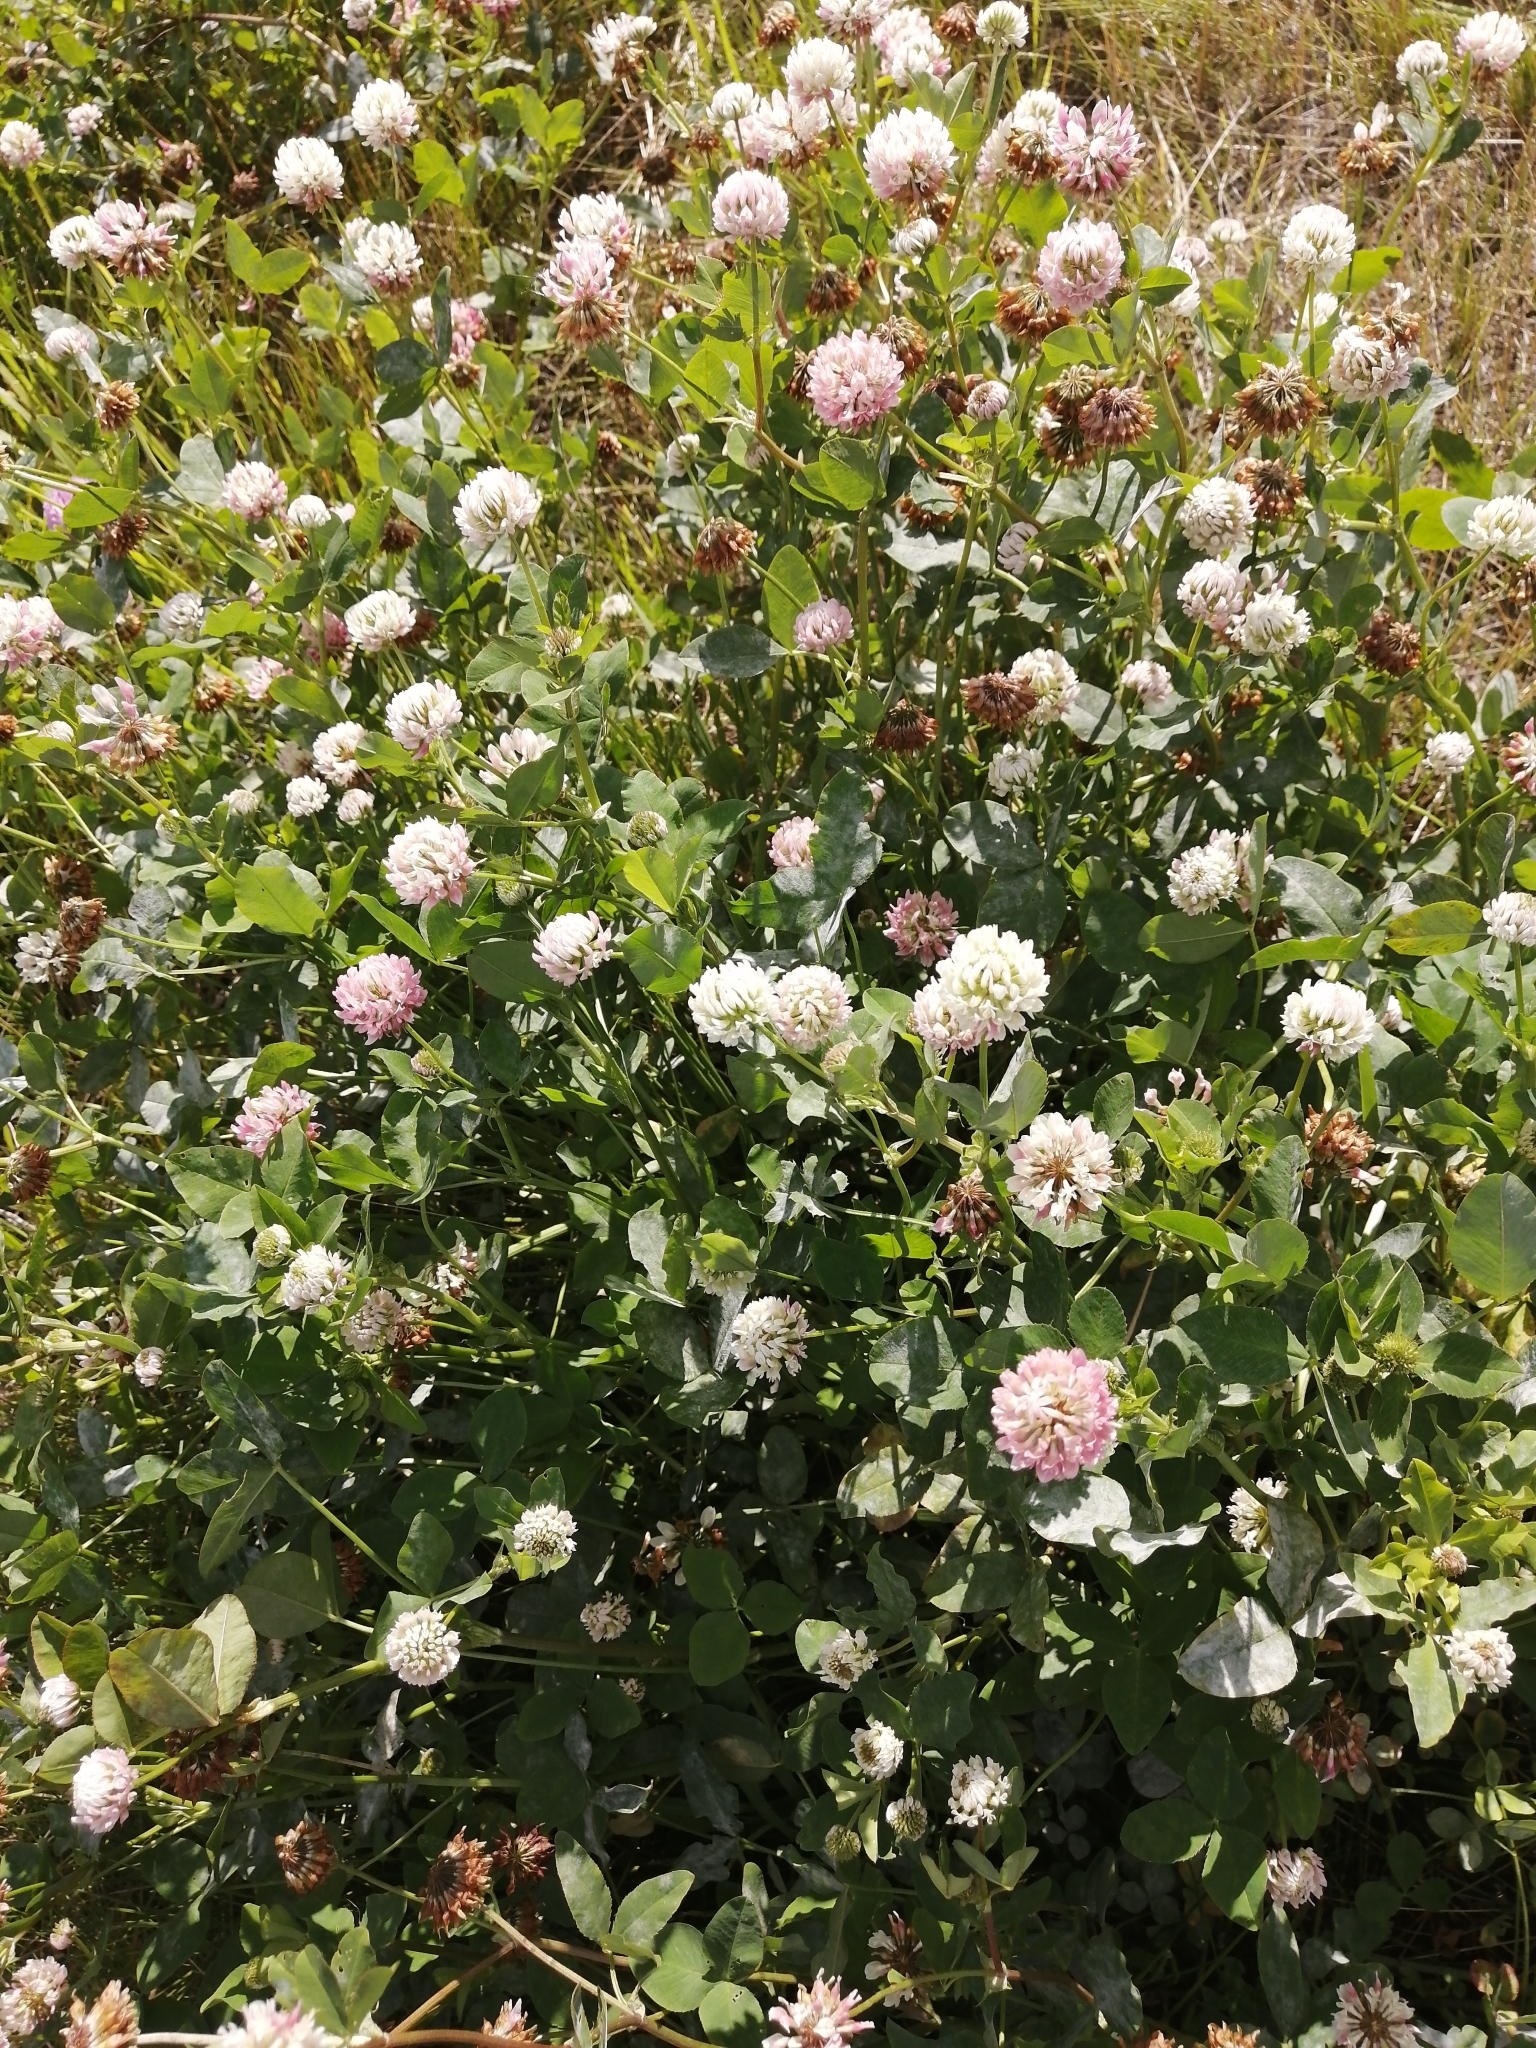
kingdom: Plantae
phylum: Tracheophyta
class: Magnoliopsida
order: Fabales
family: Fabaceae
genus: Trifolium
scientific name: Trifolium hybridum
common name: Alsike clover
